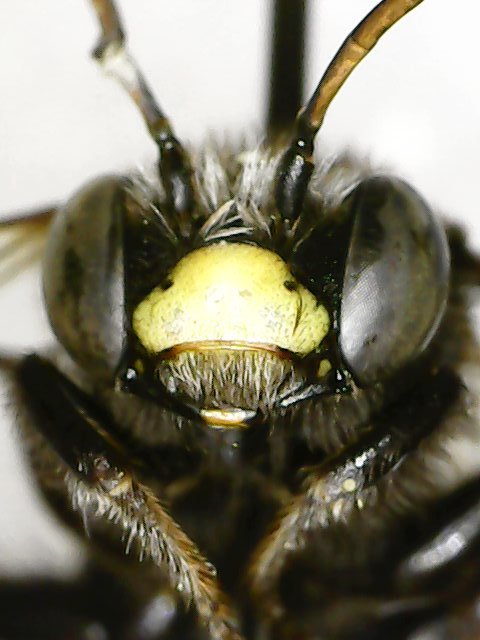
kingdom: Animalia
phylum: Arthropoda
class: Insecta
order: Hymenoptera
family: Apidae
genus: Melissodes
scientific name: Melissodes bimaculatus
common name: Two-spotted long-horned bee
